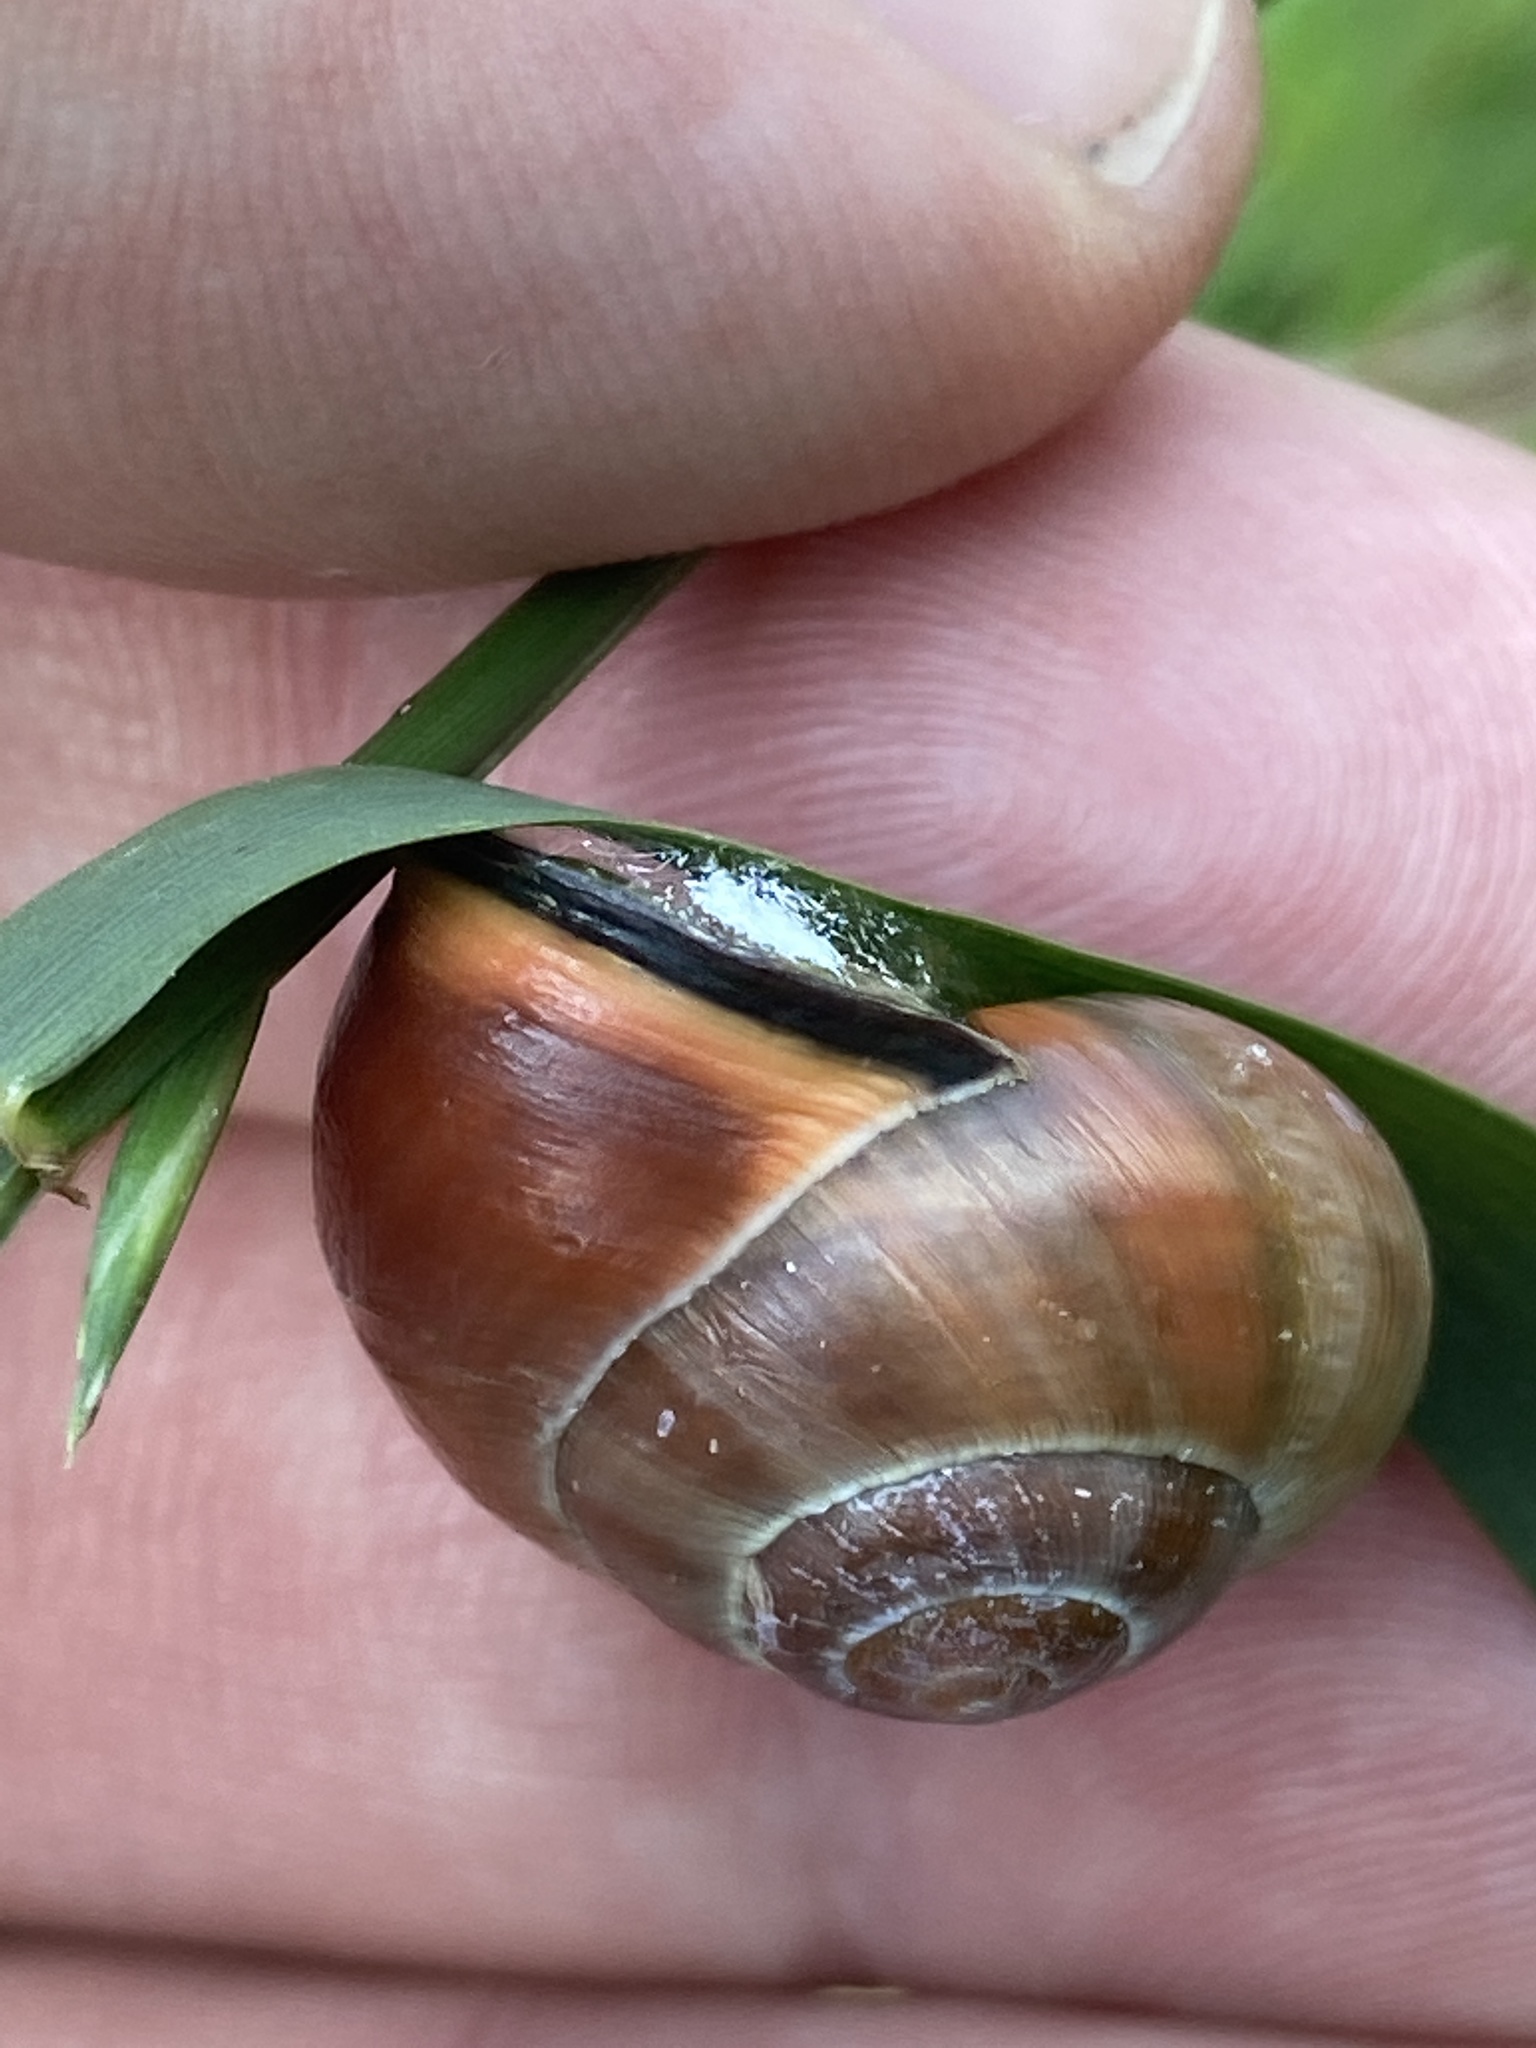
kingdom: Animalia
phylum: Mollusca
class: Gastropoda
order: Stylommatophora
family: Helicidae
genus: Cepaea
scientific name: Cepaea nemoralis
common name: Grovesnail
